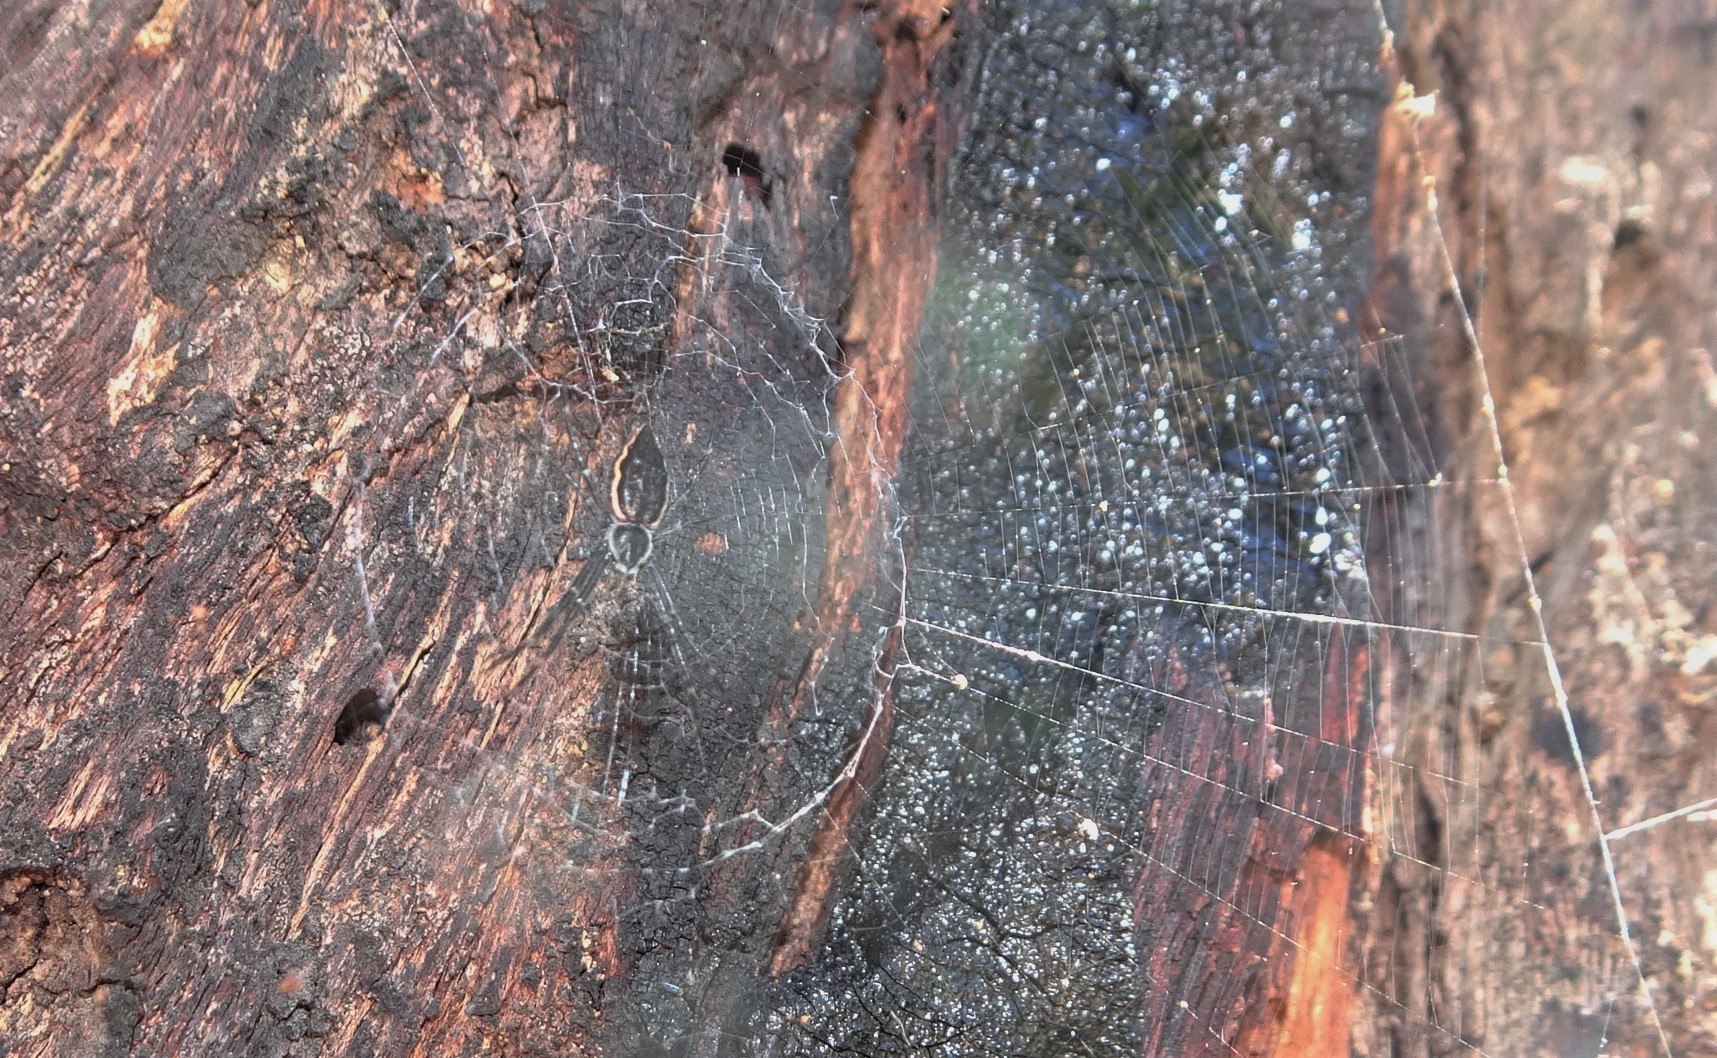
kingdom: Animalia
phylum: Arthropoda
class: Arachnida
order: Araneae
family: Araneidae
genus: Argiope
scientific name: Argiope ocyaloides
